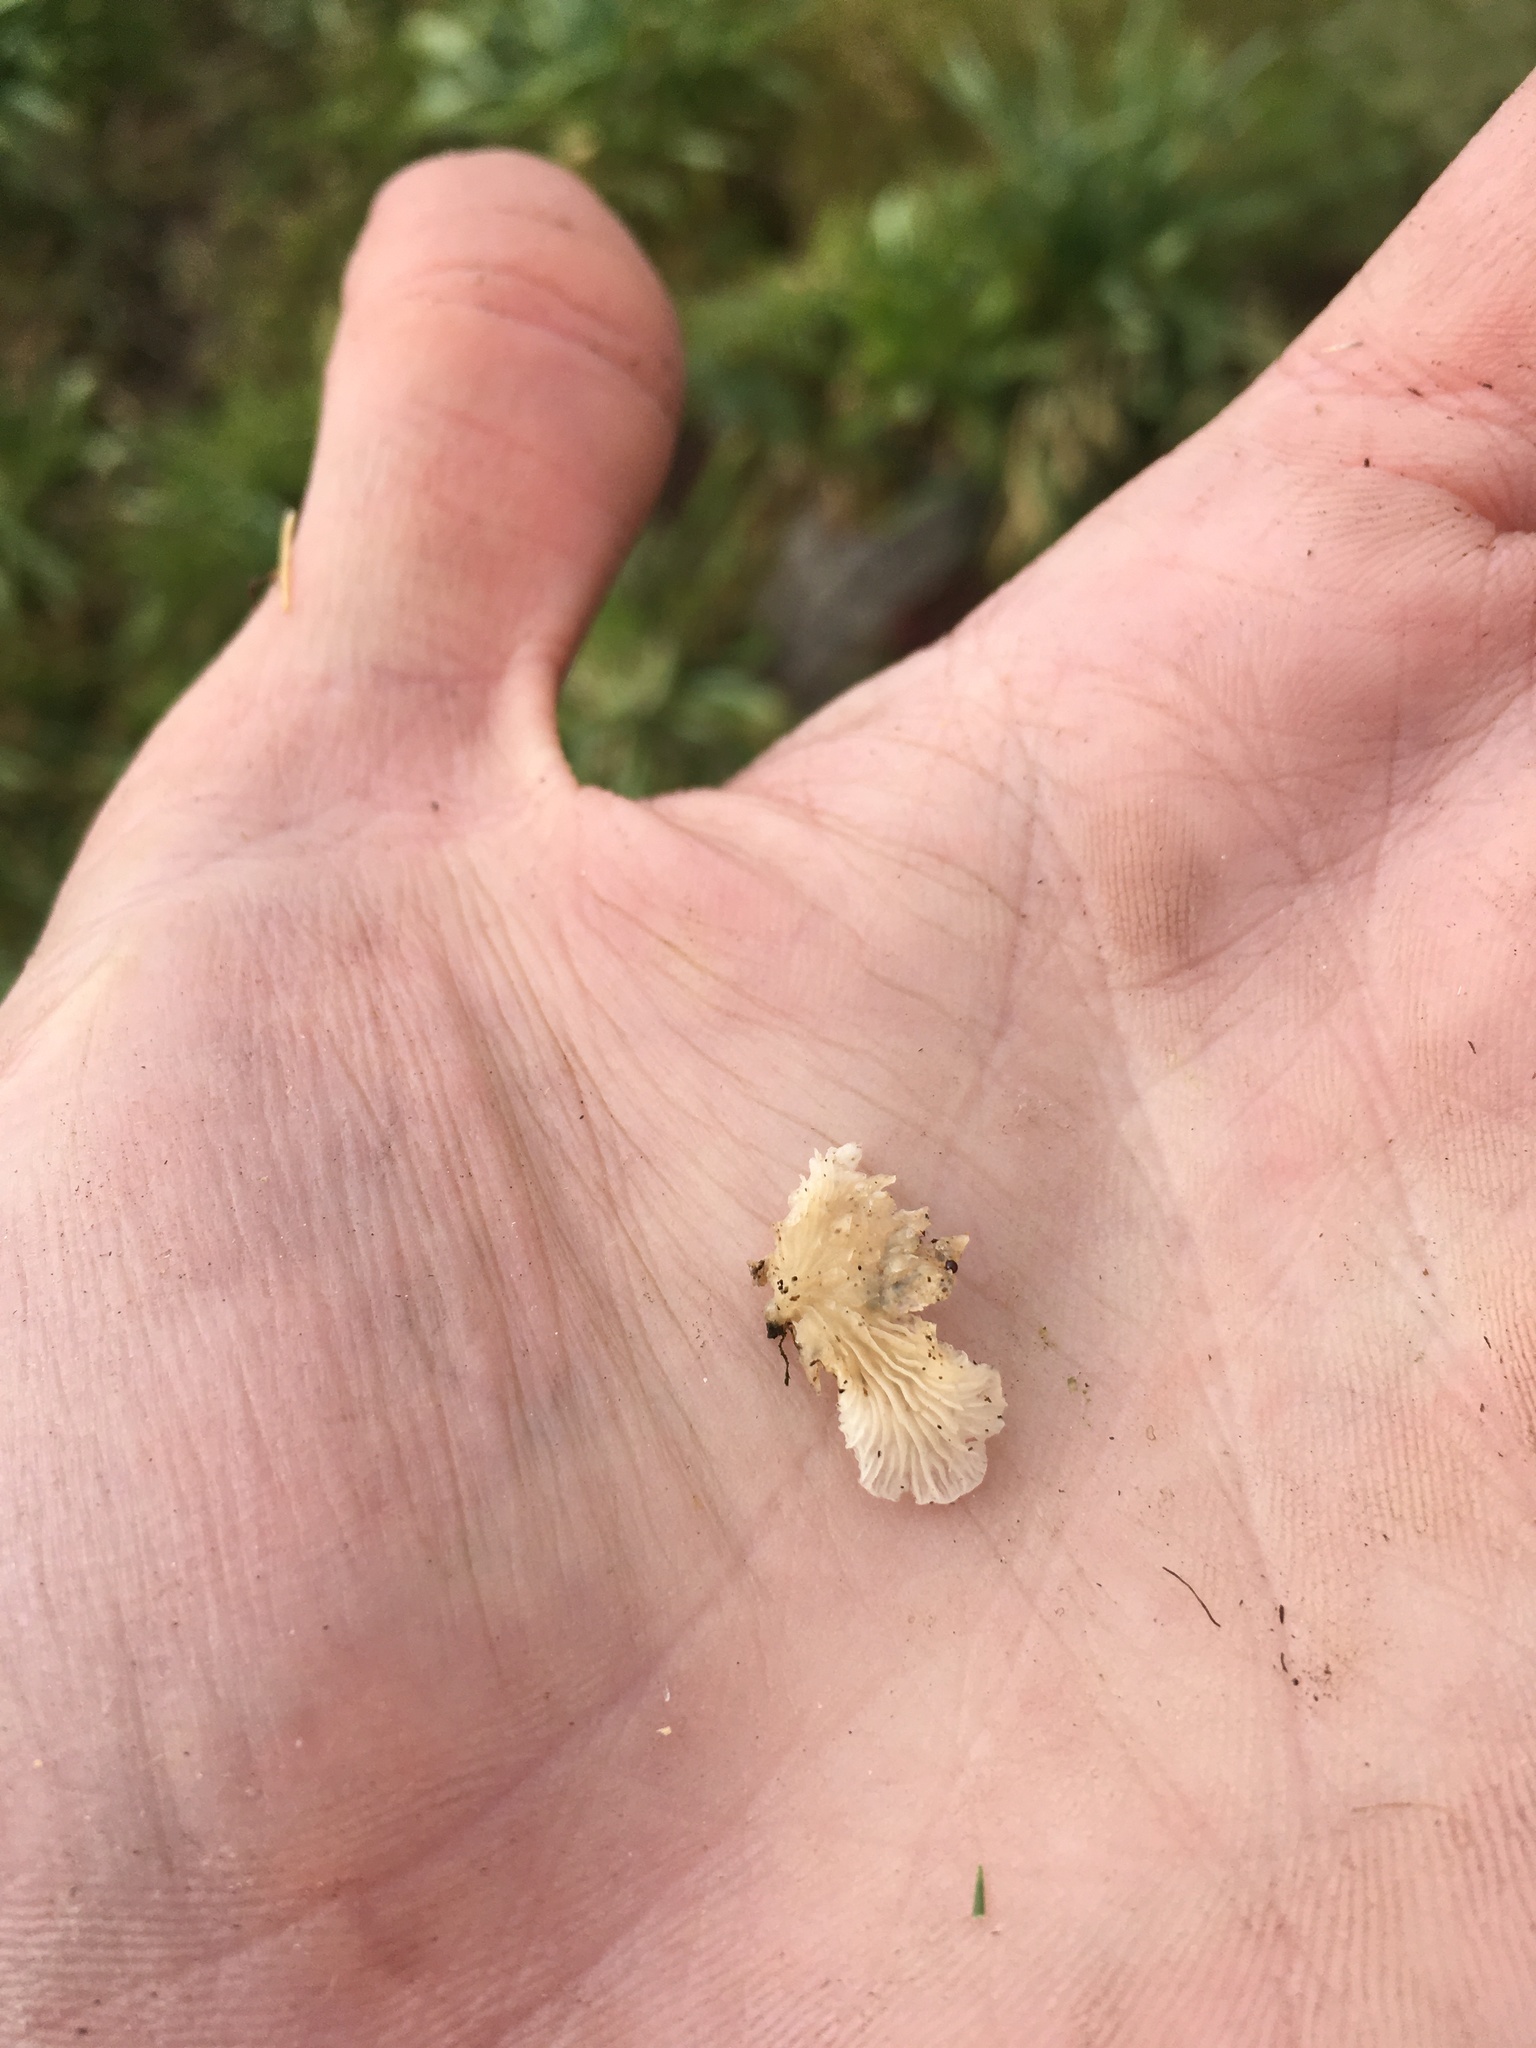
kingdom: Fungi
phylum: Basidiomycota
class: Agaricomycetes
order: Agaricales
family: Schizophyllaceae
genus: Schizophyllum
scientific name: Schizophyllum commune
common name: Common porecrust
